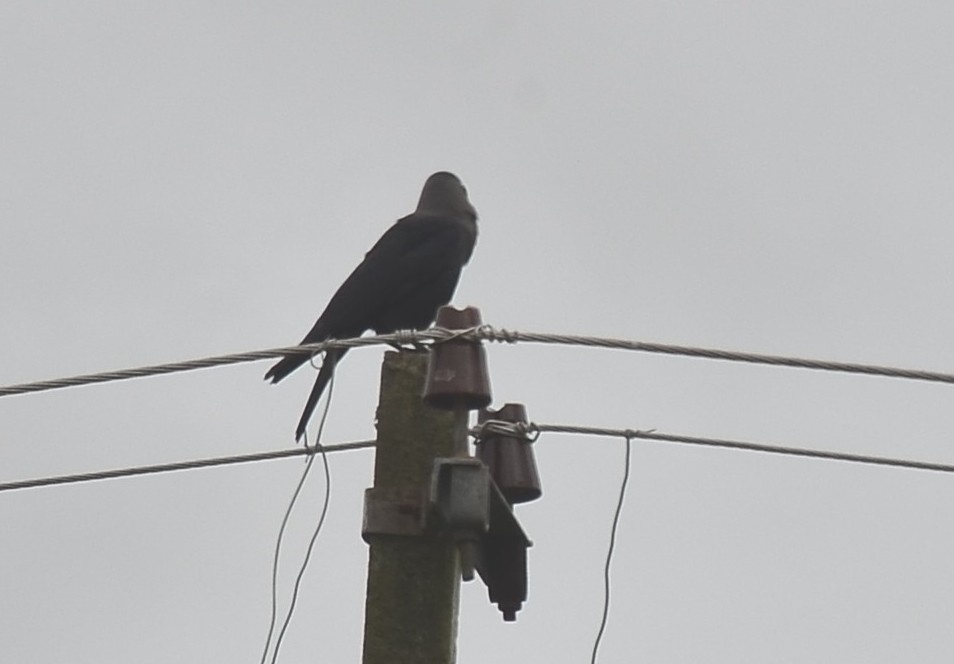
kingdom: Animalia
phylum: Chordata
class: Aves
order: Passeriformes
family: Corvidae
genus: Corvus
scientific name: Corvus splendens
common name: House crow
